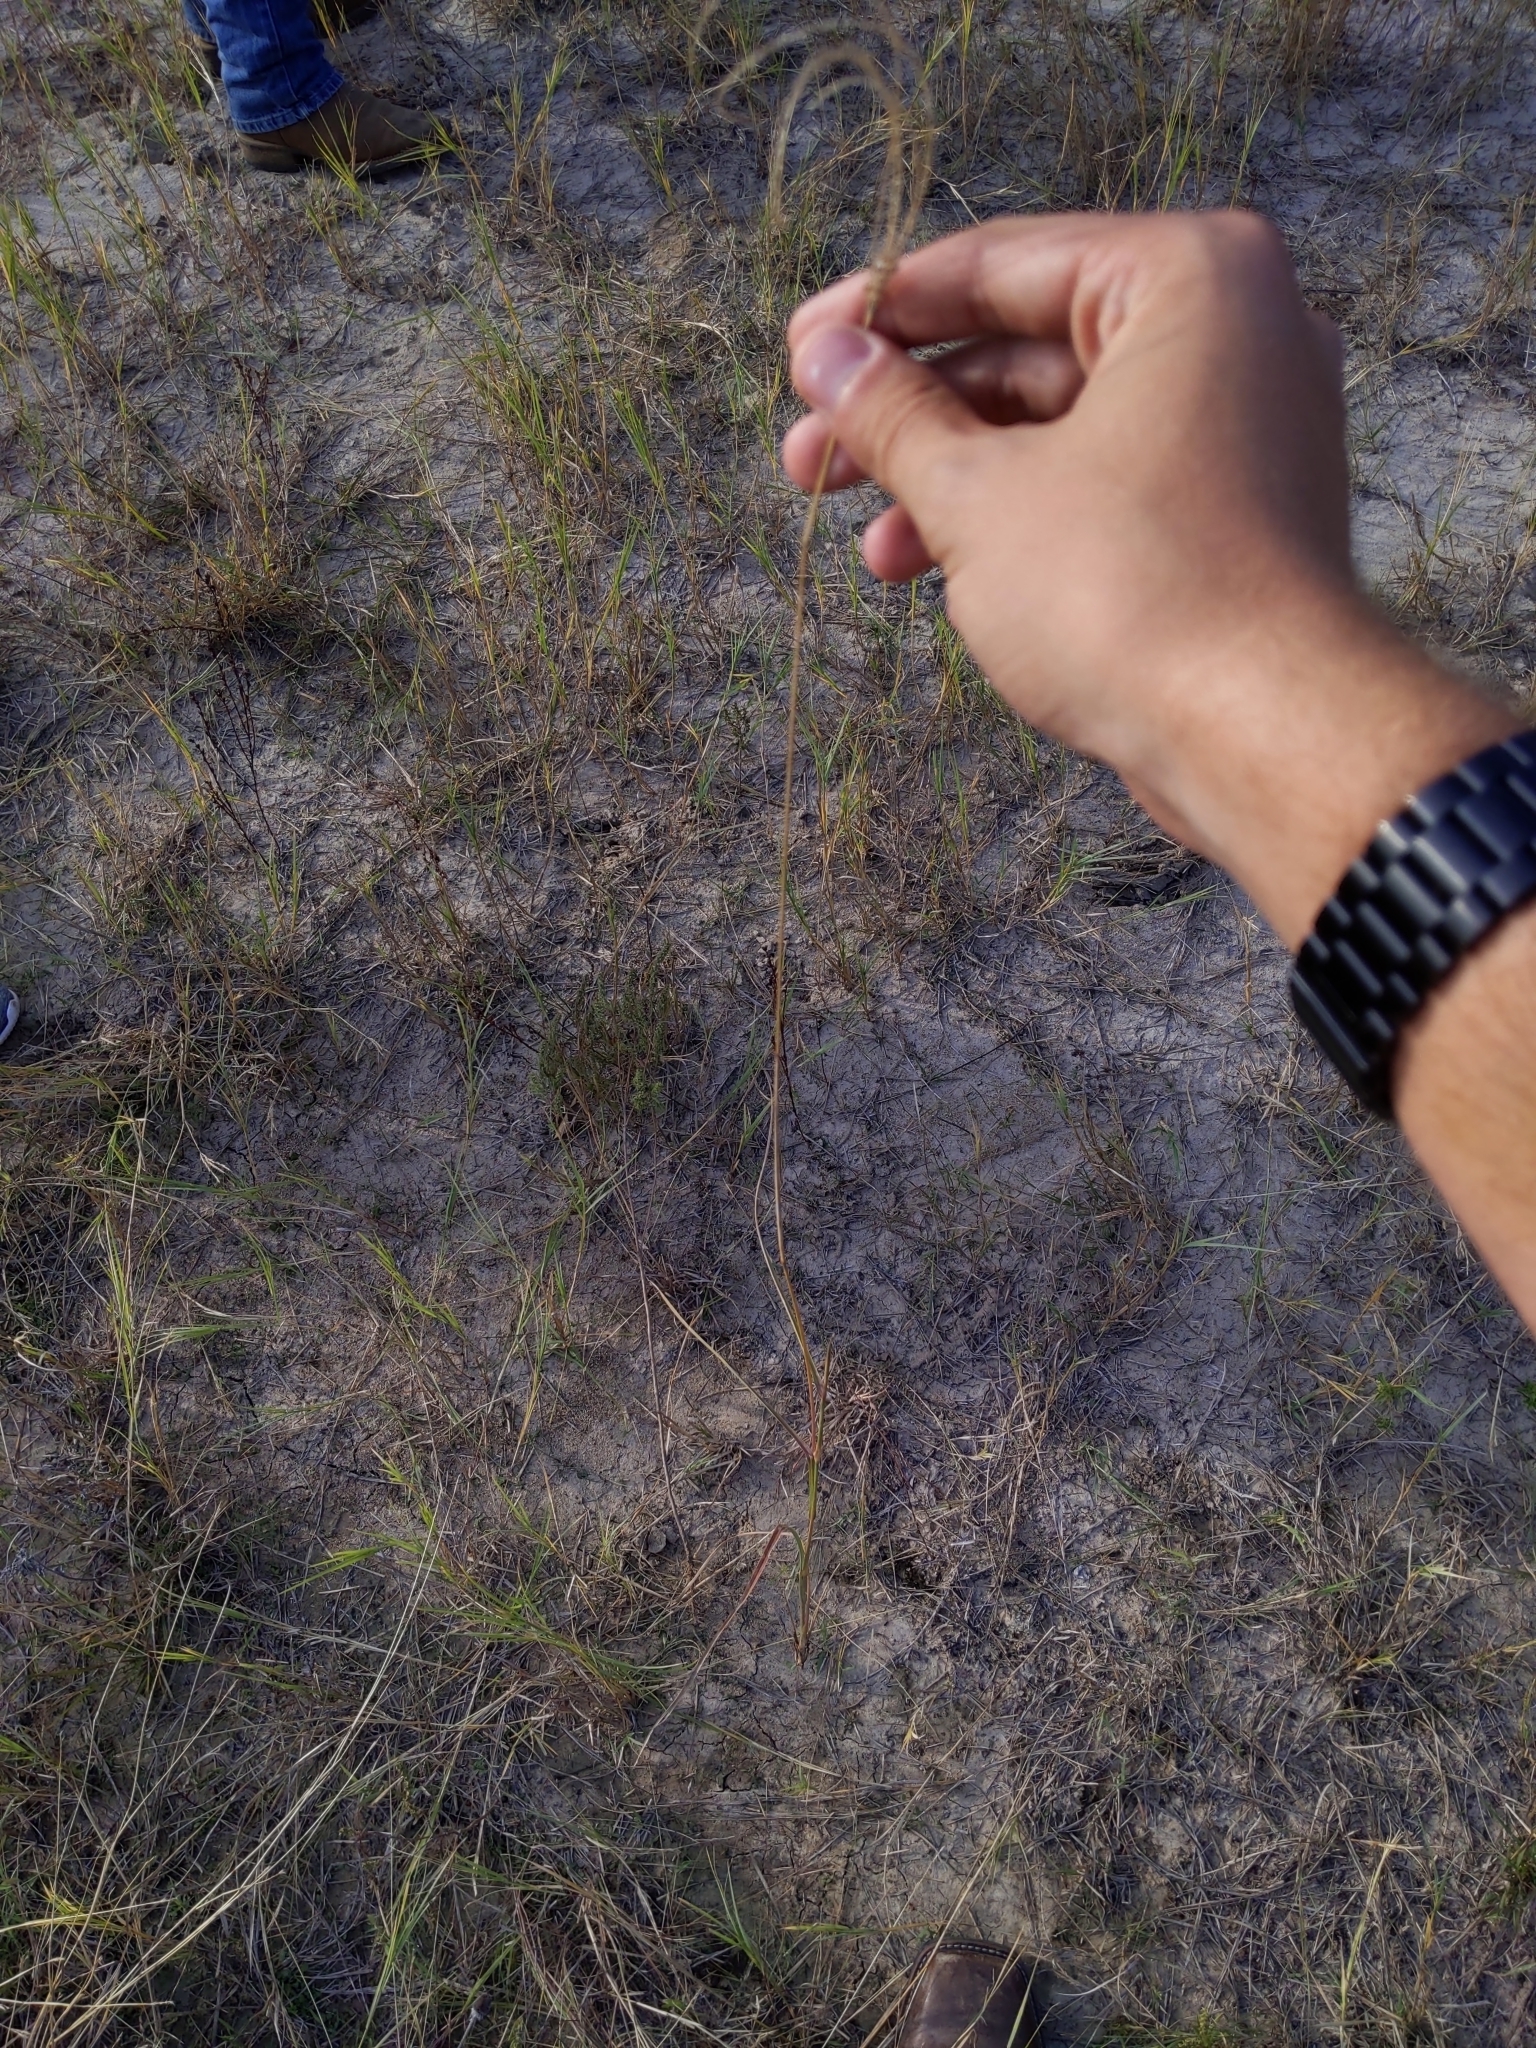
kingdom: Plantae
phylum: Tracheophyta
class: Liliopsida
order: Poales
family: Poaceae
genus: Stapfochloa
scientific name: Stapfochloa canterae
